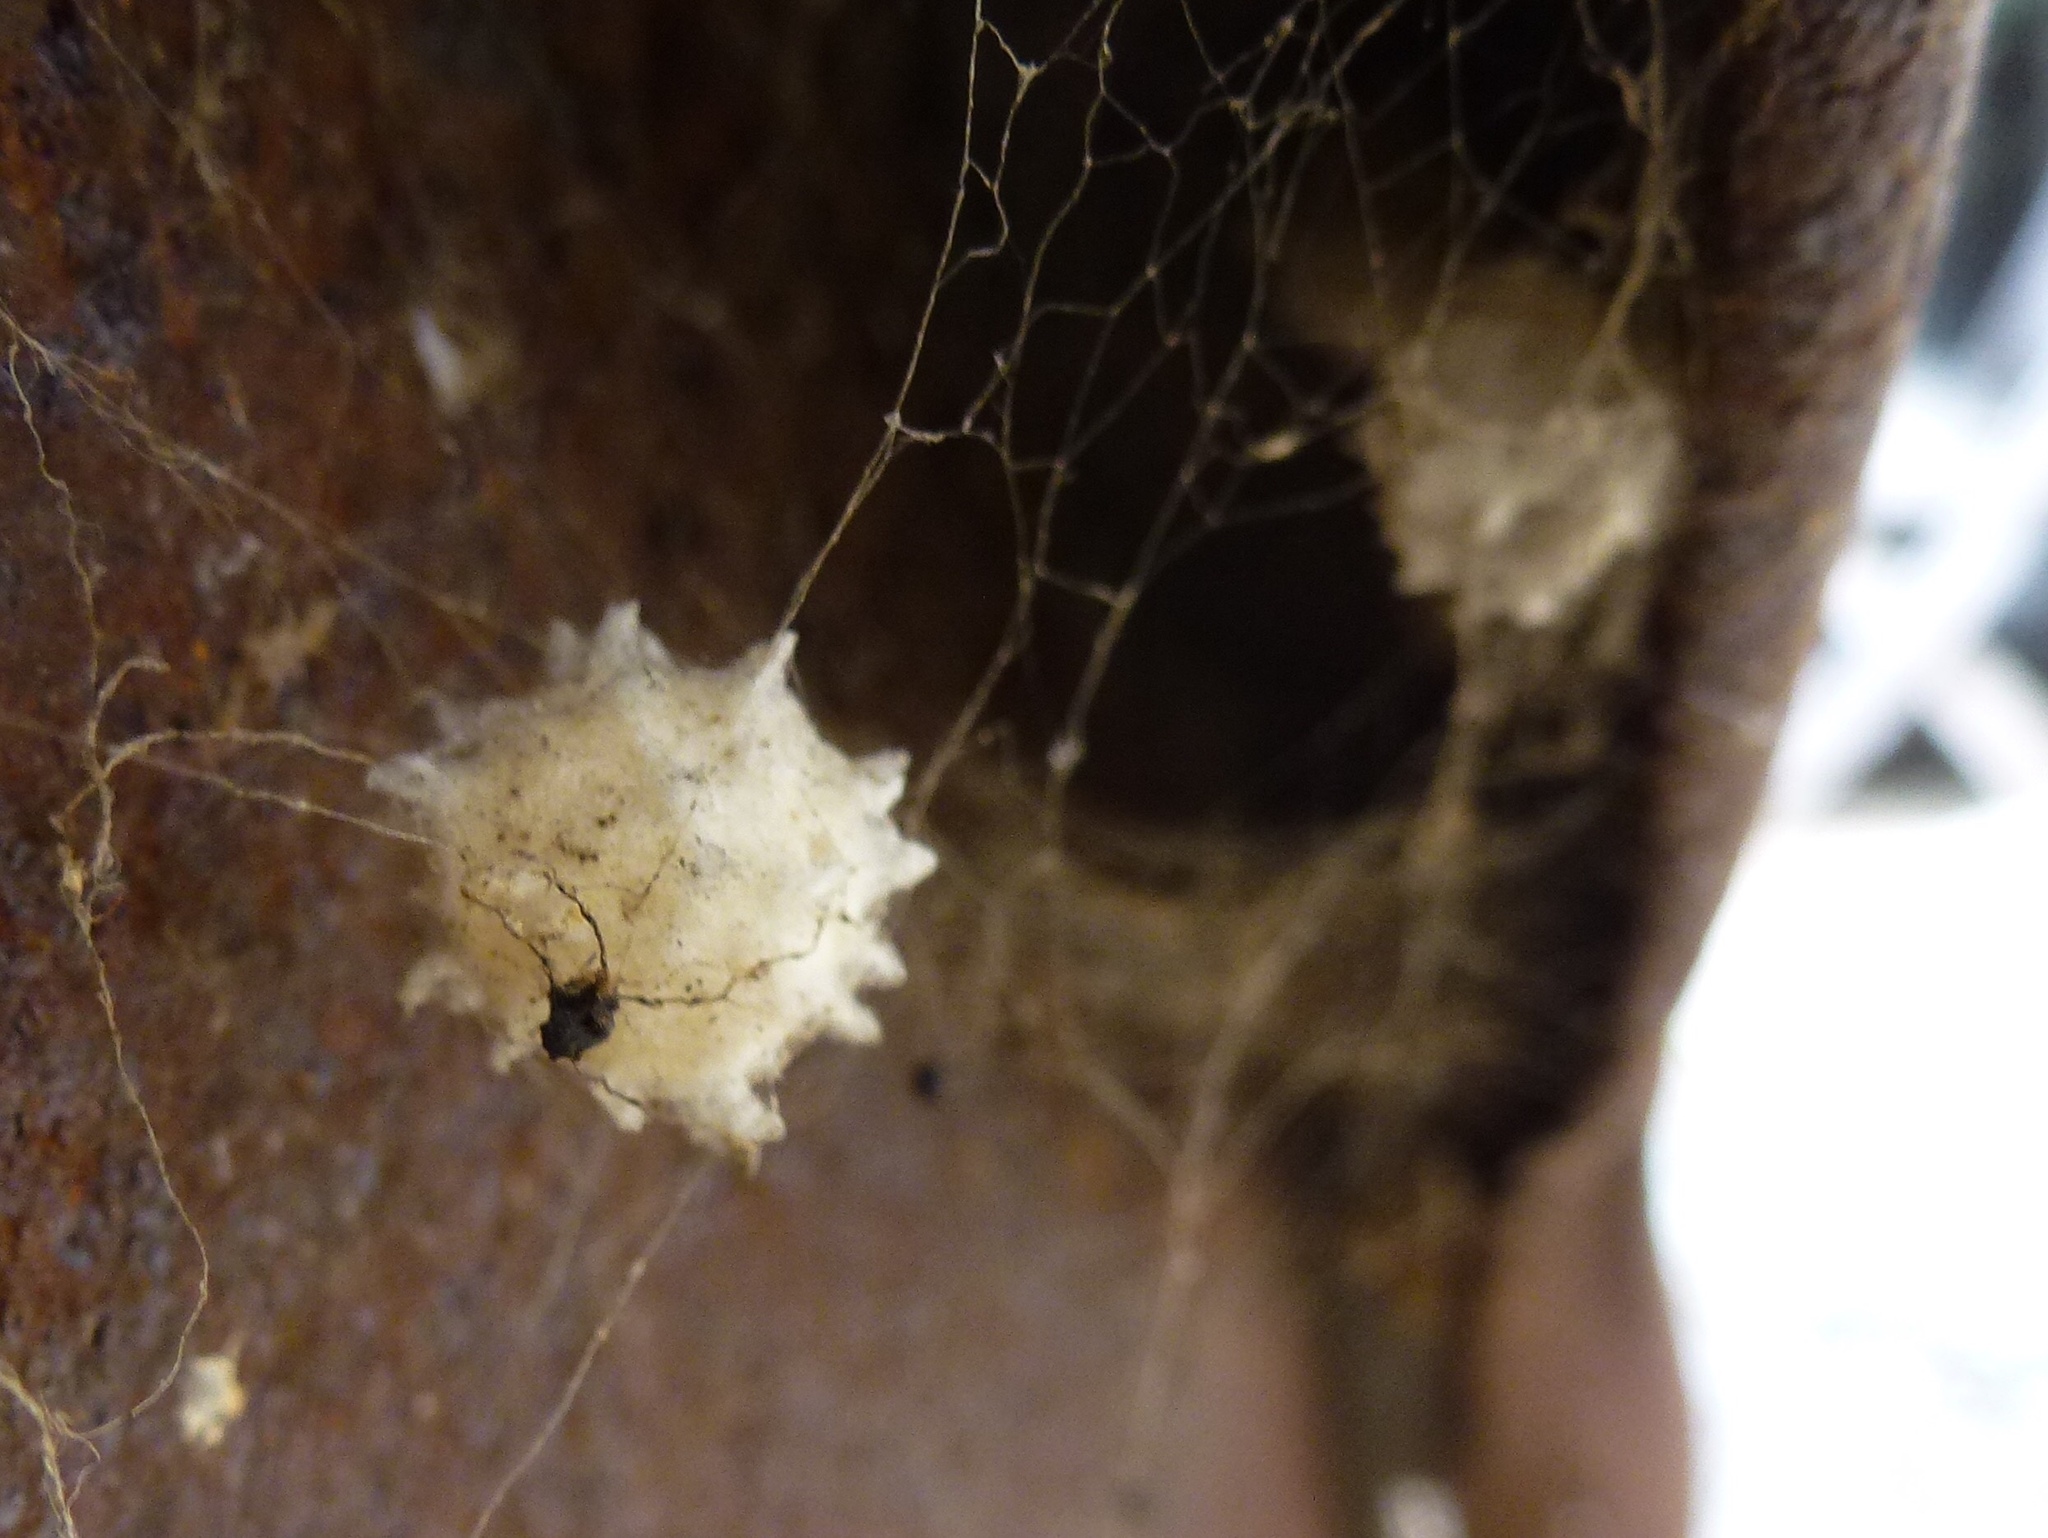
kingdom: Animalia
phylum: Arthropoda
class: Arachnida
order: Araneae
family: Theridiidae
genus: Latrodectus
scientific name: Latrodectus geometricus
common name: Brown widow spider
